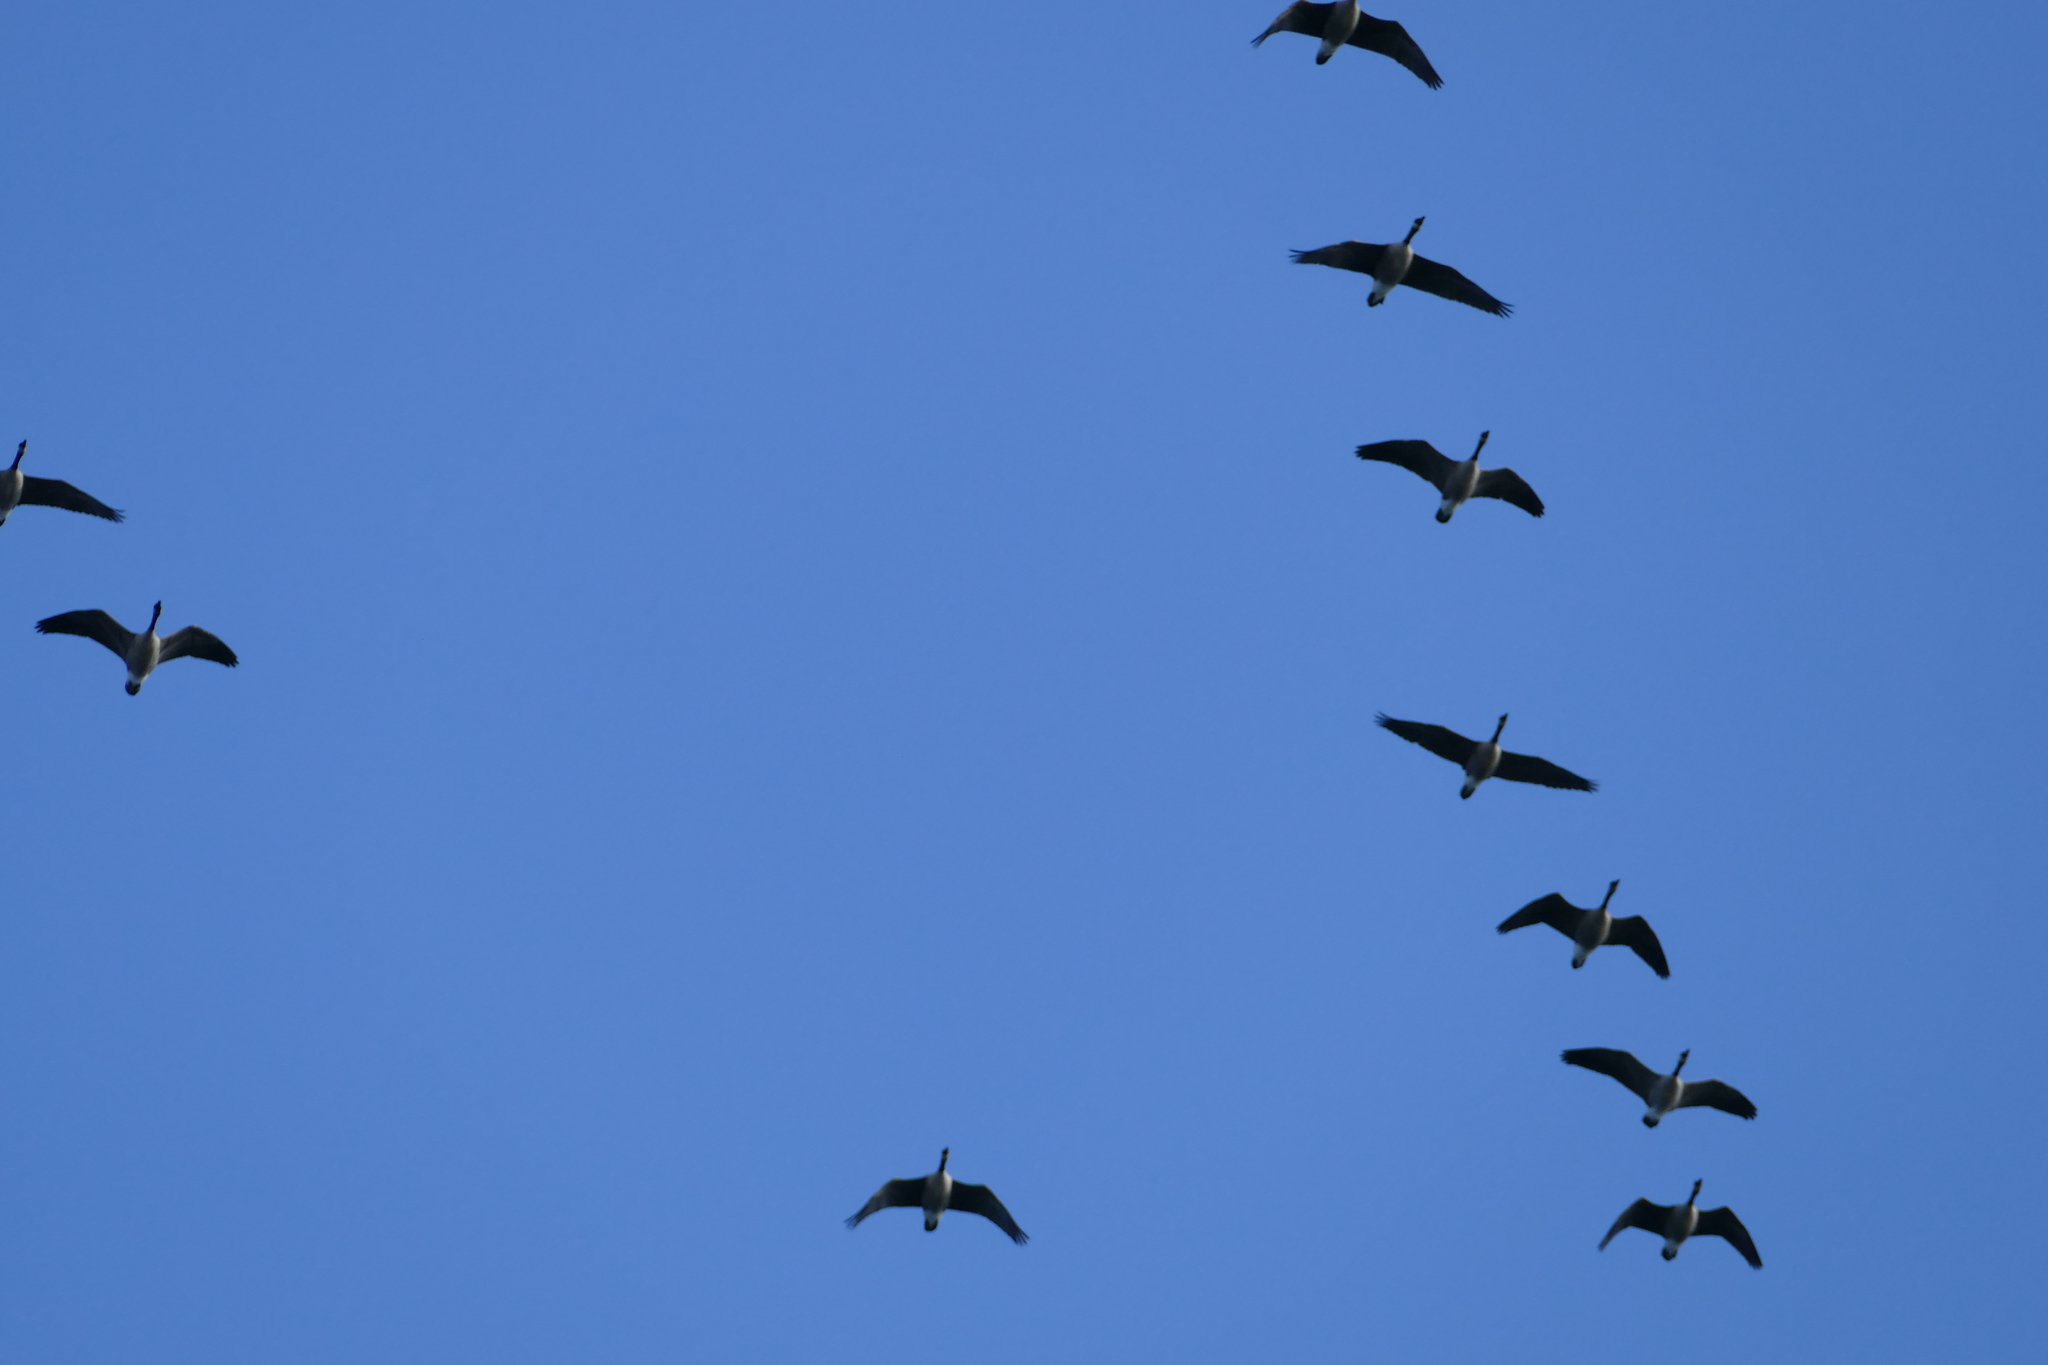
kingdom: Animalia
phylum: Chordata
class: Aves
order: Anseriformes
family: Anatidae
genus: Branta
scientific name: Branta canadensis
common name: Canada goose
